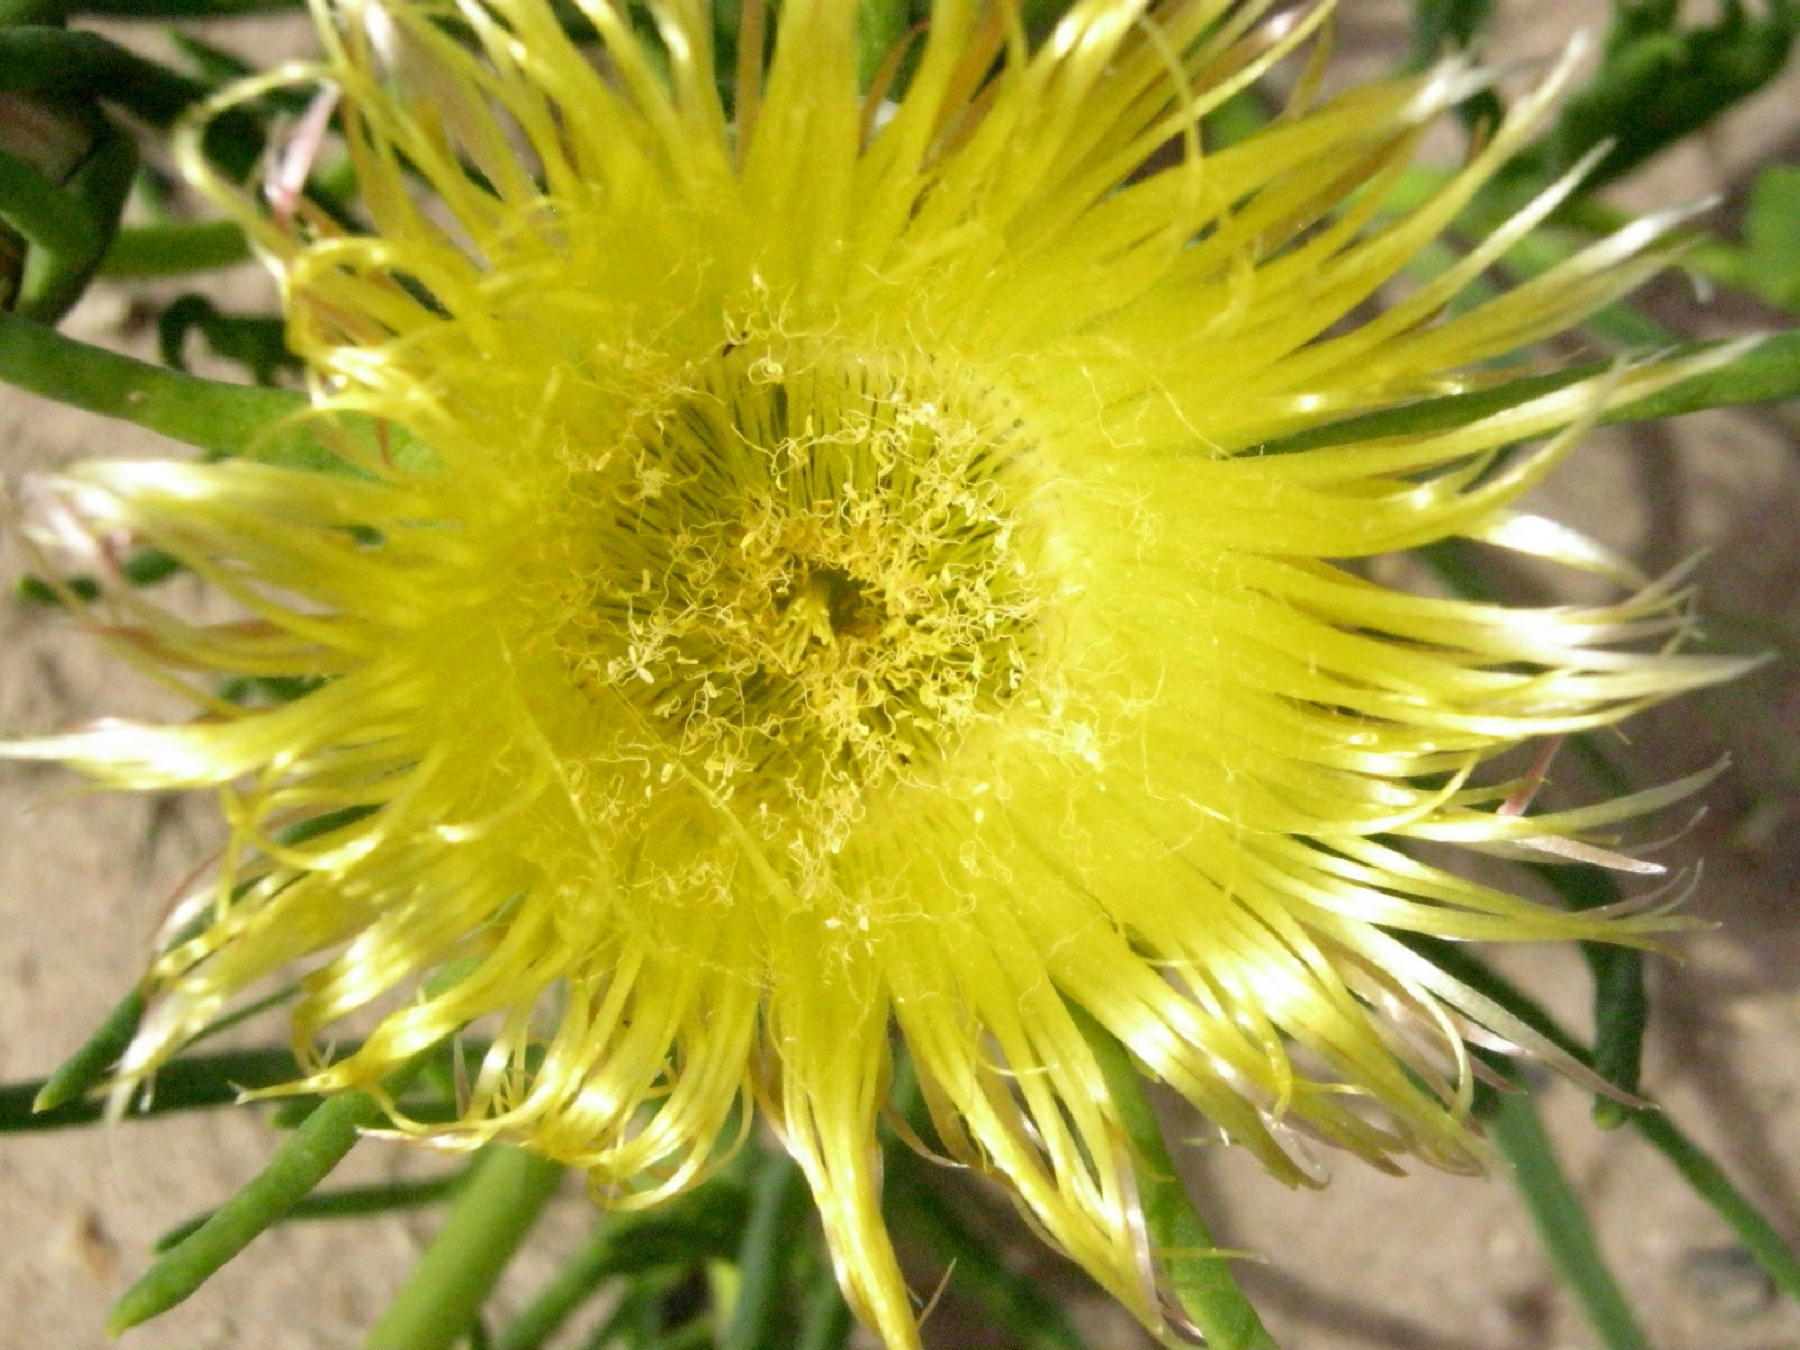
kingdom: Plantae
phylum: Tracheophyta
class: Magnoliopsida
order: Caryophyllales
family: Aizoaceae
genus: Conicosia
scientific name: Conicosia pugioniformis
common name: Narrow-leaved iceplant
